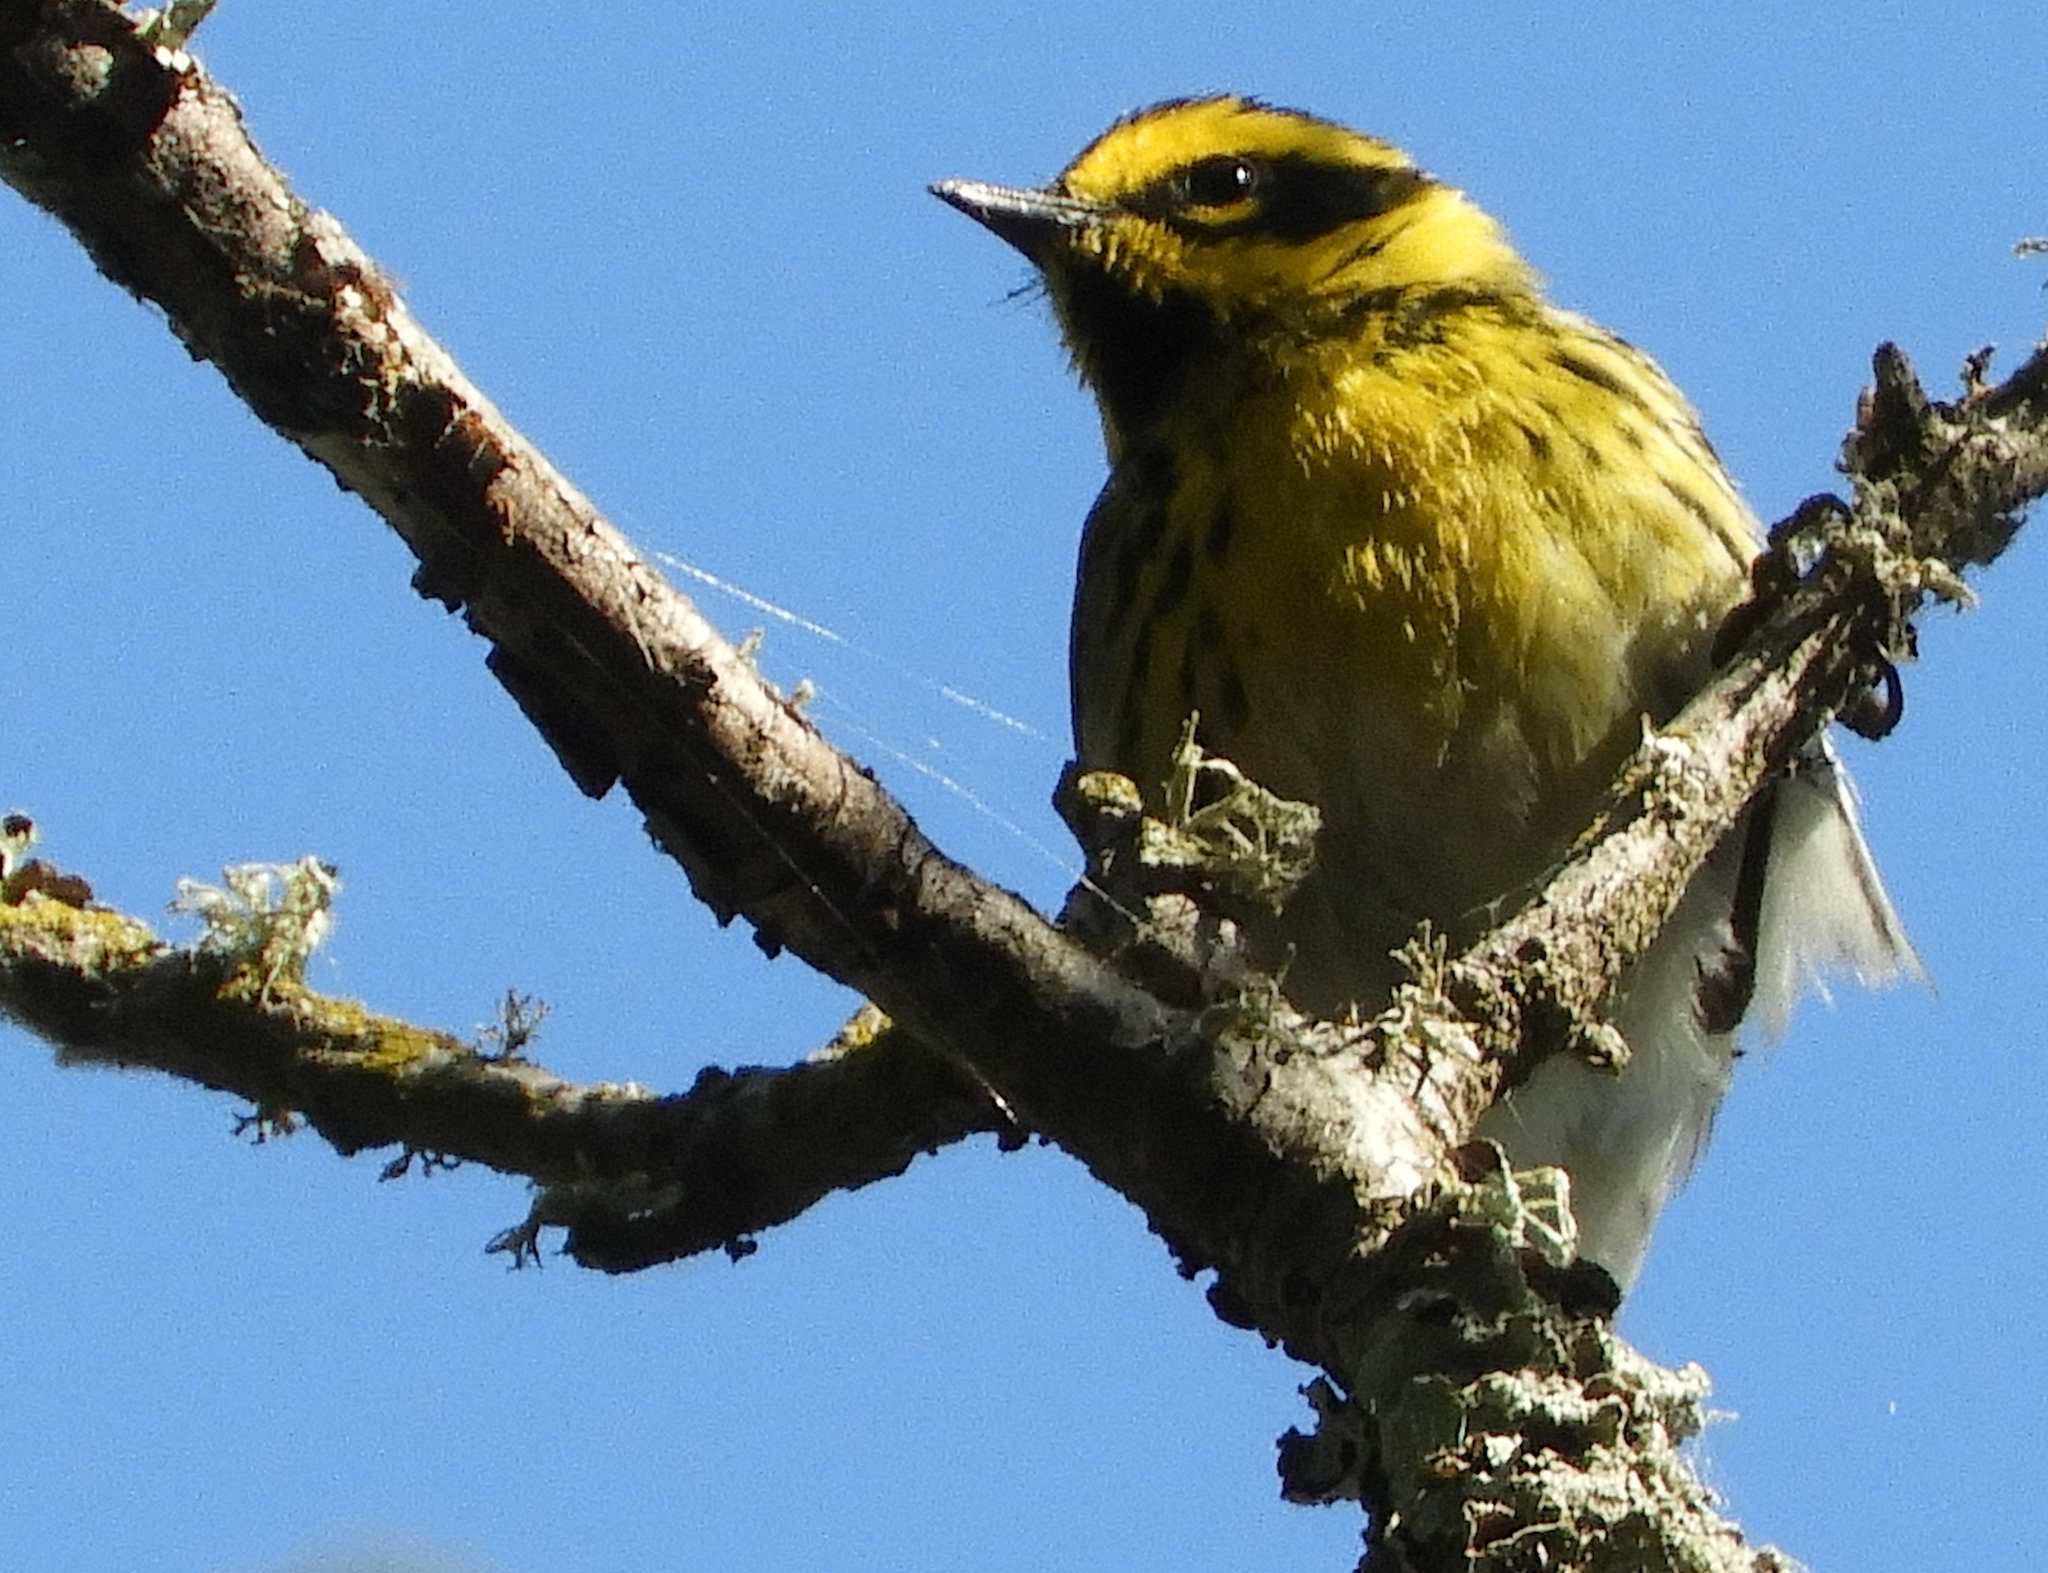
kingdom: Animalia
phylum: Chordata
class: Aves
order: Passeriformes
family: Parulidae
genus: Setophaga
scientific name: Setophaga townsendi
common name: Townsend's warbler
